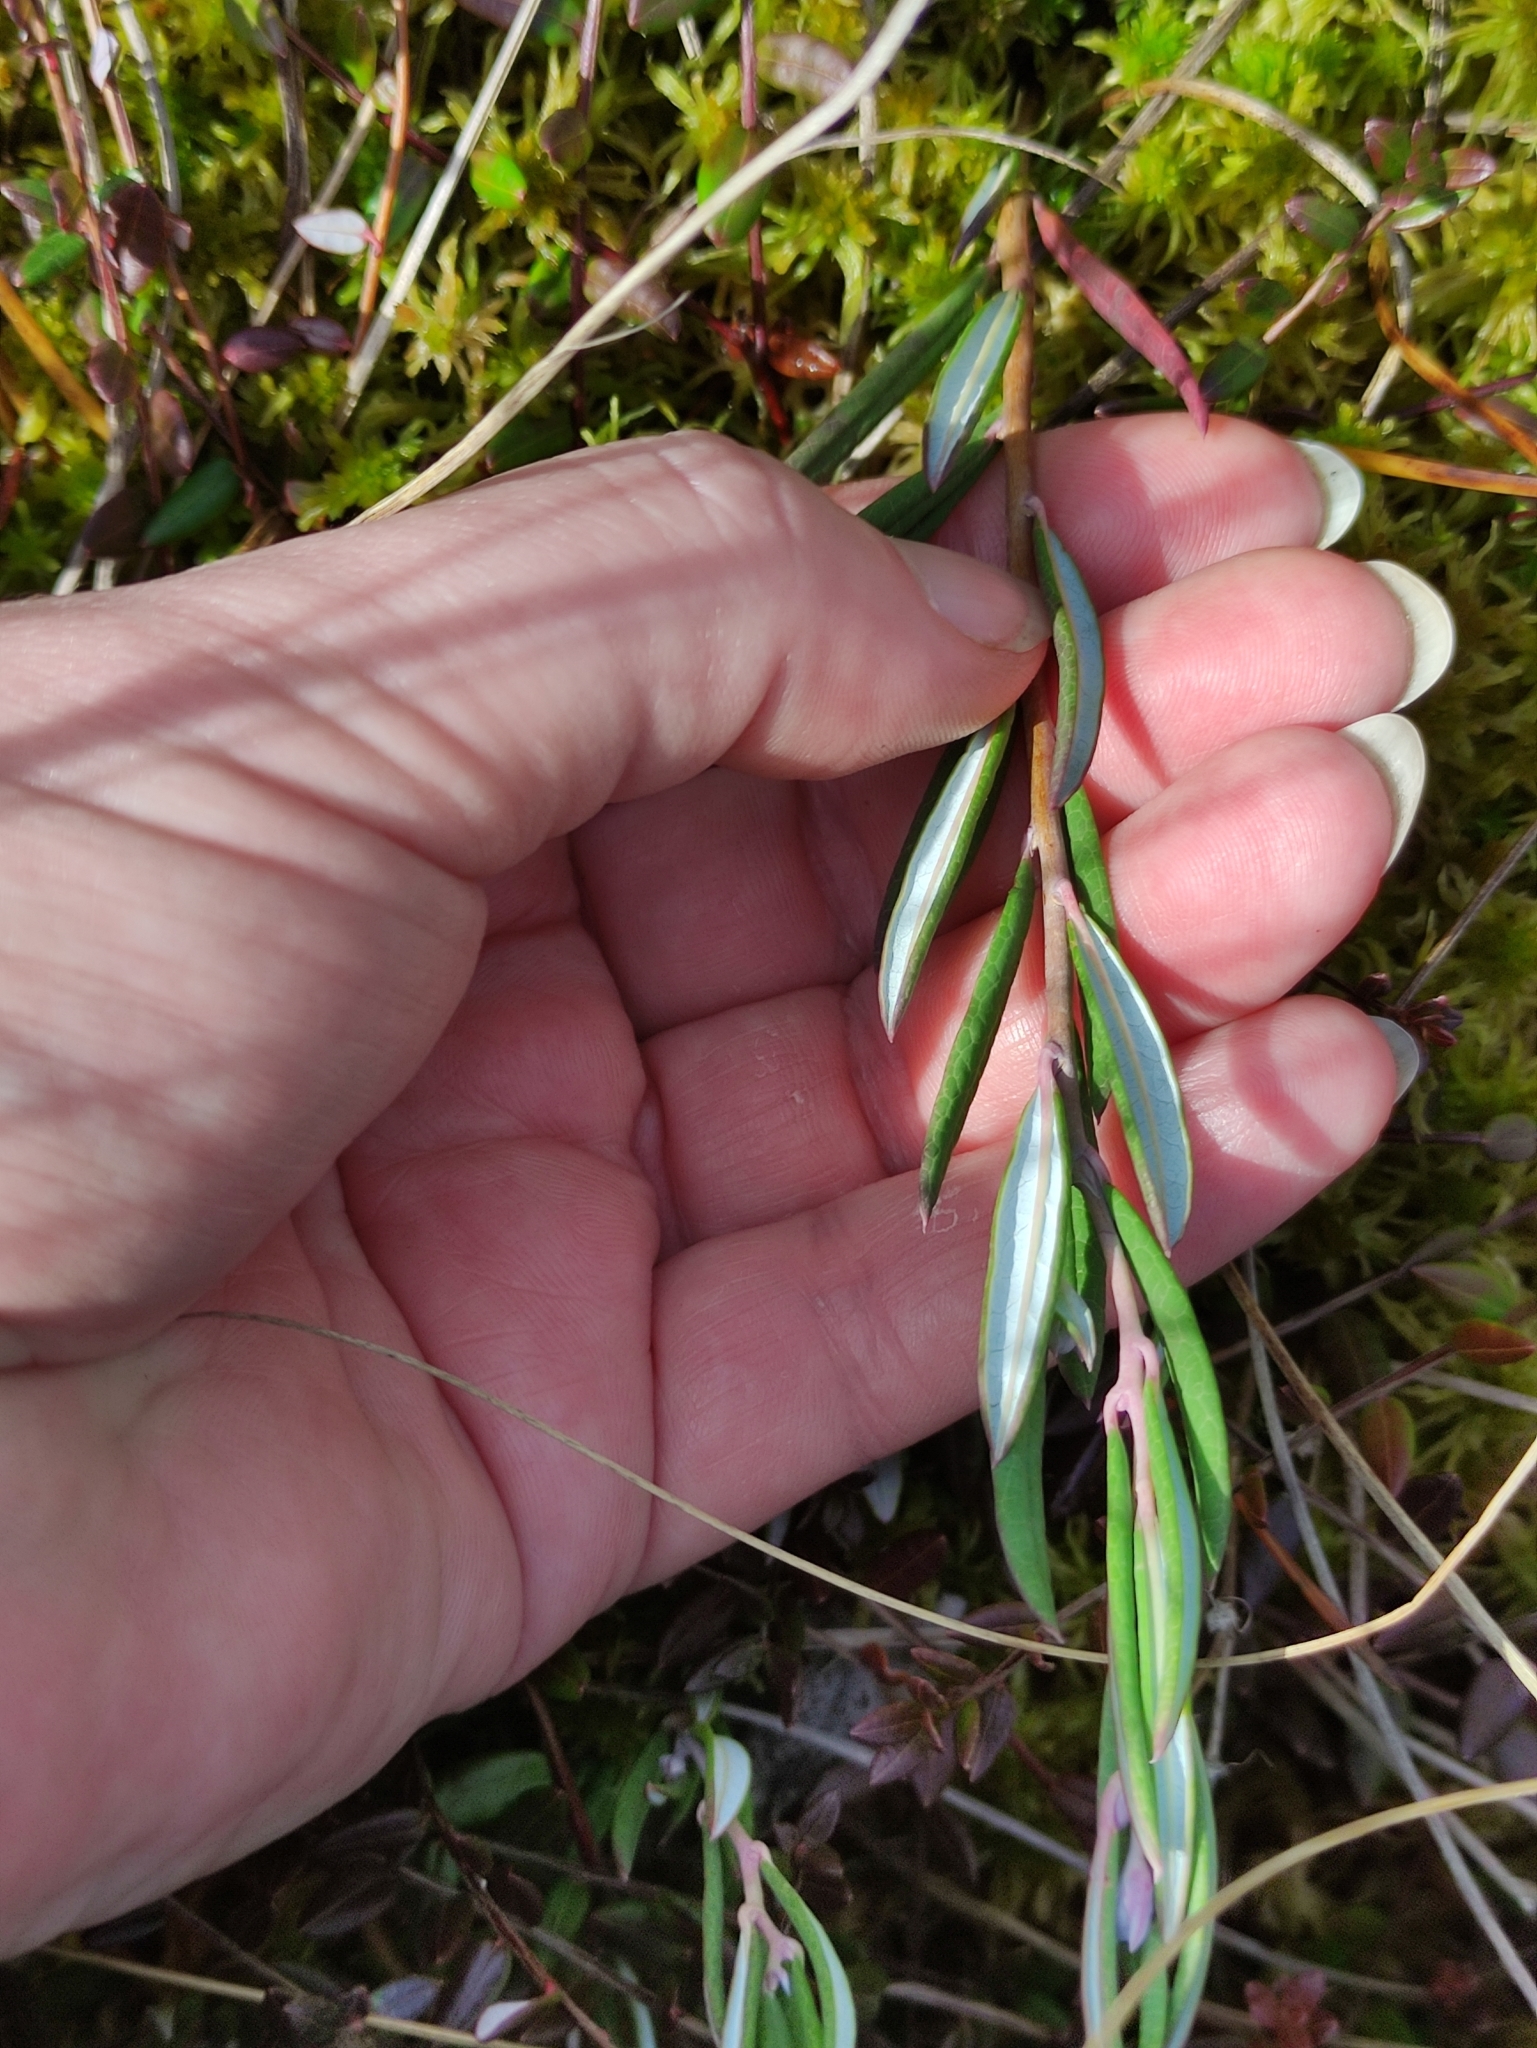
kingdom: Plantae
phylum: Tracheophyta
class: Magnoliopsida
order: Ericales
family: Ericaceae
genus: Andromeda
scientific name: Andromeda polifolia
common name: Bog-rosemary
